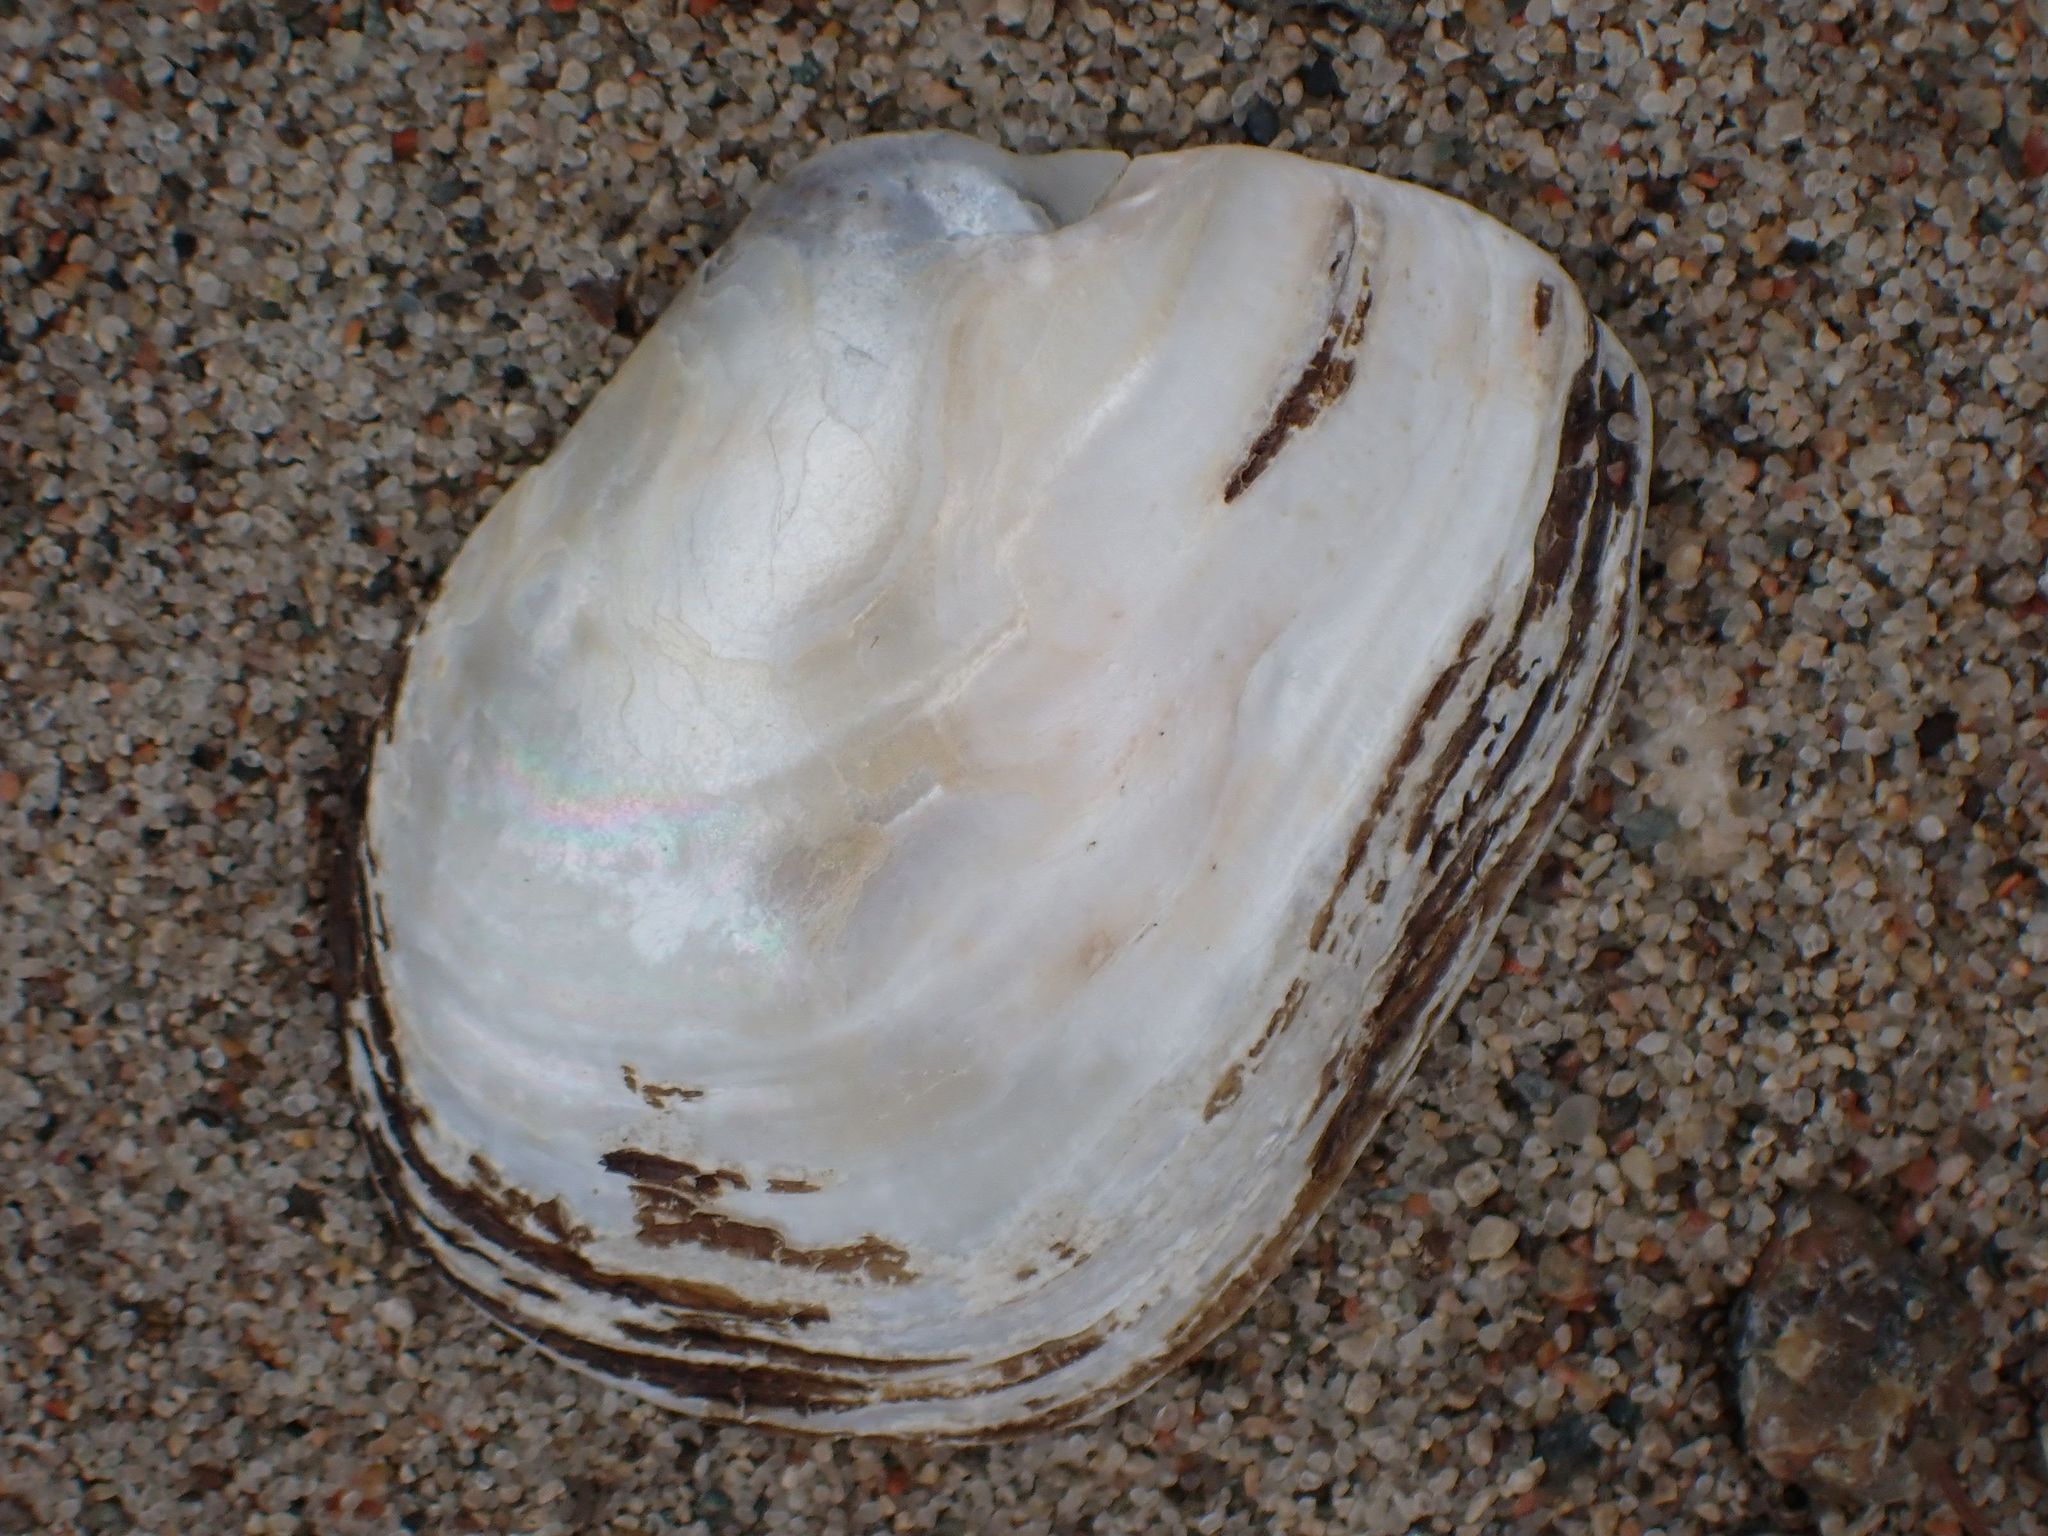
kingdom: Animalia
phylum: Mollusca
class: Bivalvia
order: Unionida
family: Unionidae
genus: Lampsilis
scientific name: Lampsilis siliquoidea
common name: Fatmucket
